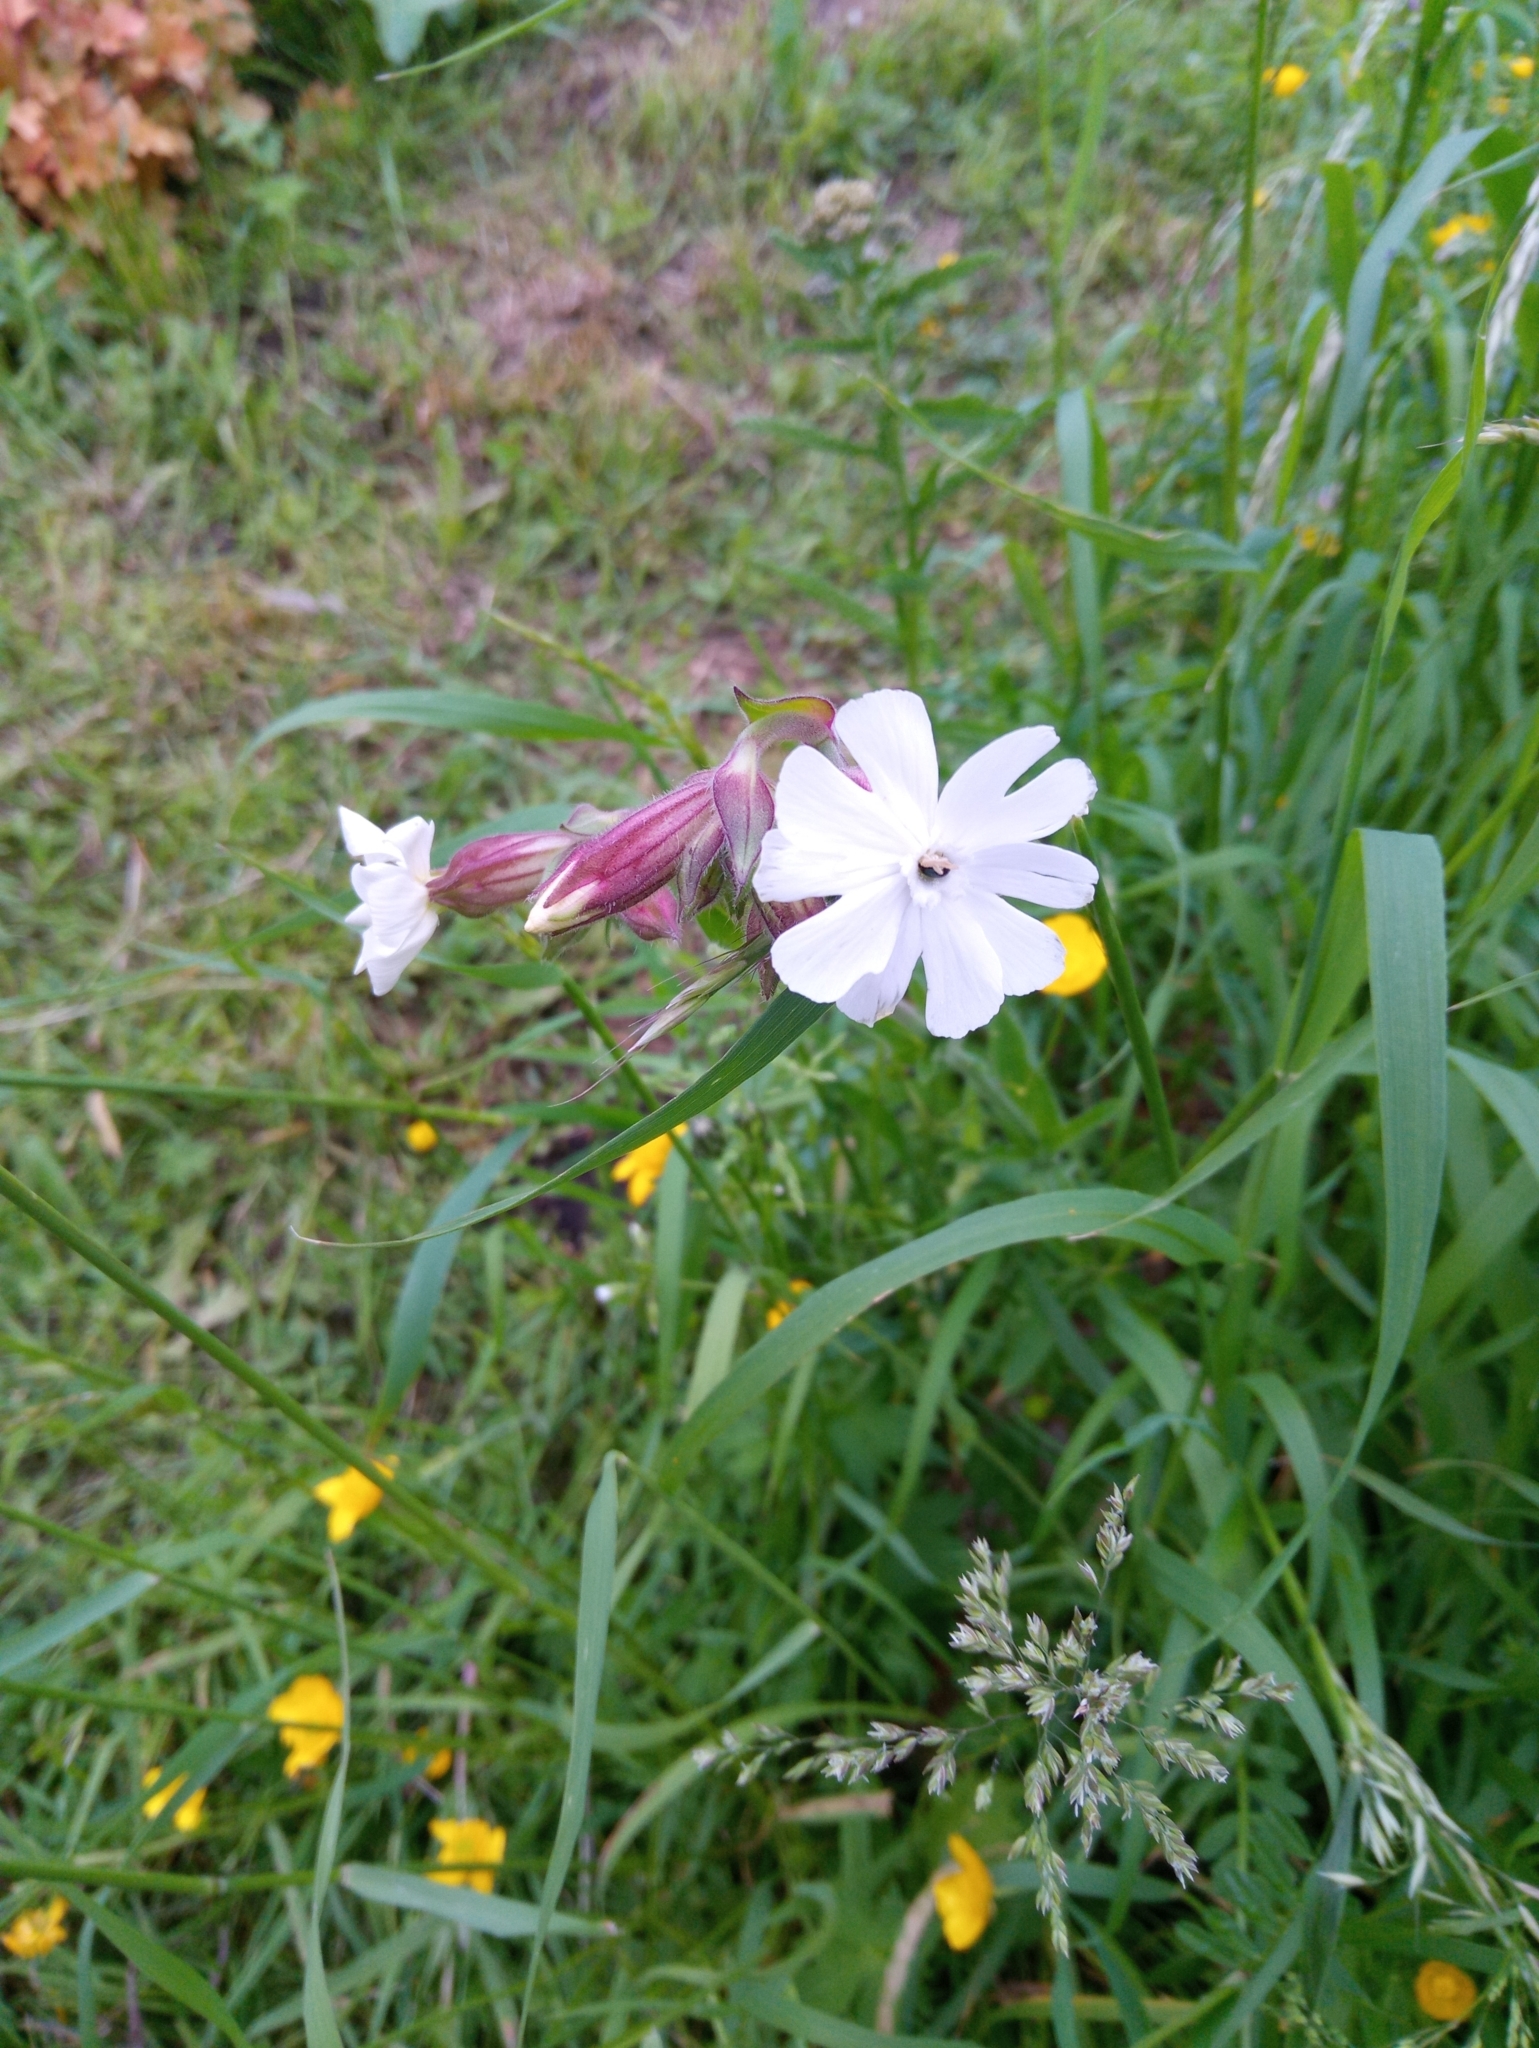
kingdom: Plantae
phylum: Tracheophyta
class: Magnoliopsida
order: Caryophyllales
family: Caryophyllaceae
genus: Silene
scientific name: Silene latifolia
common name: White campion
